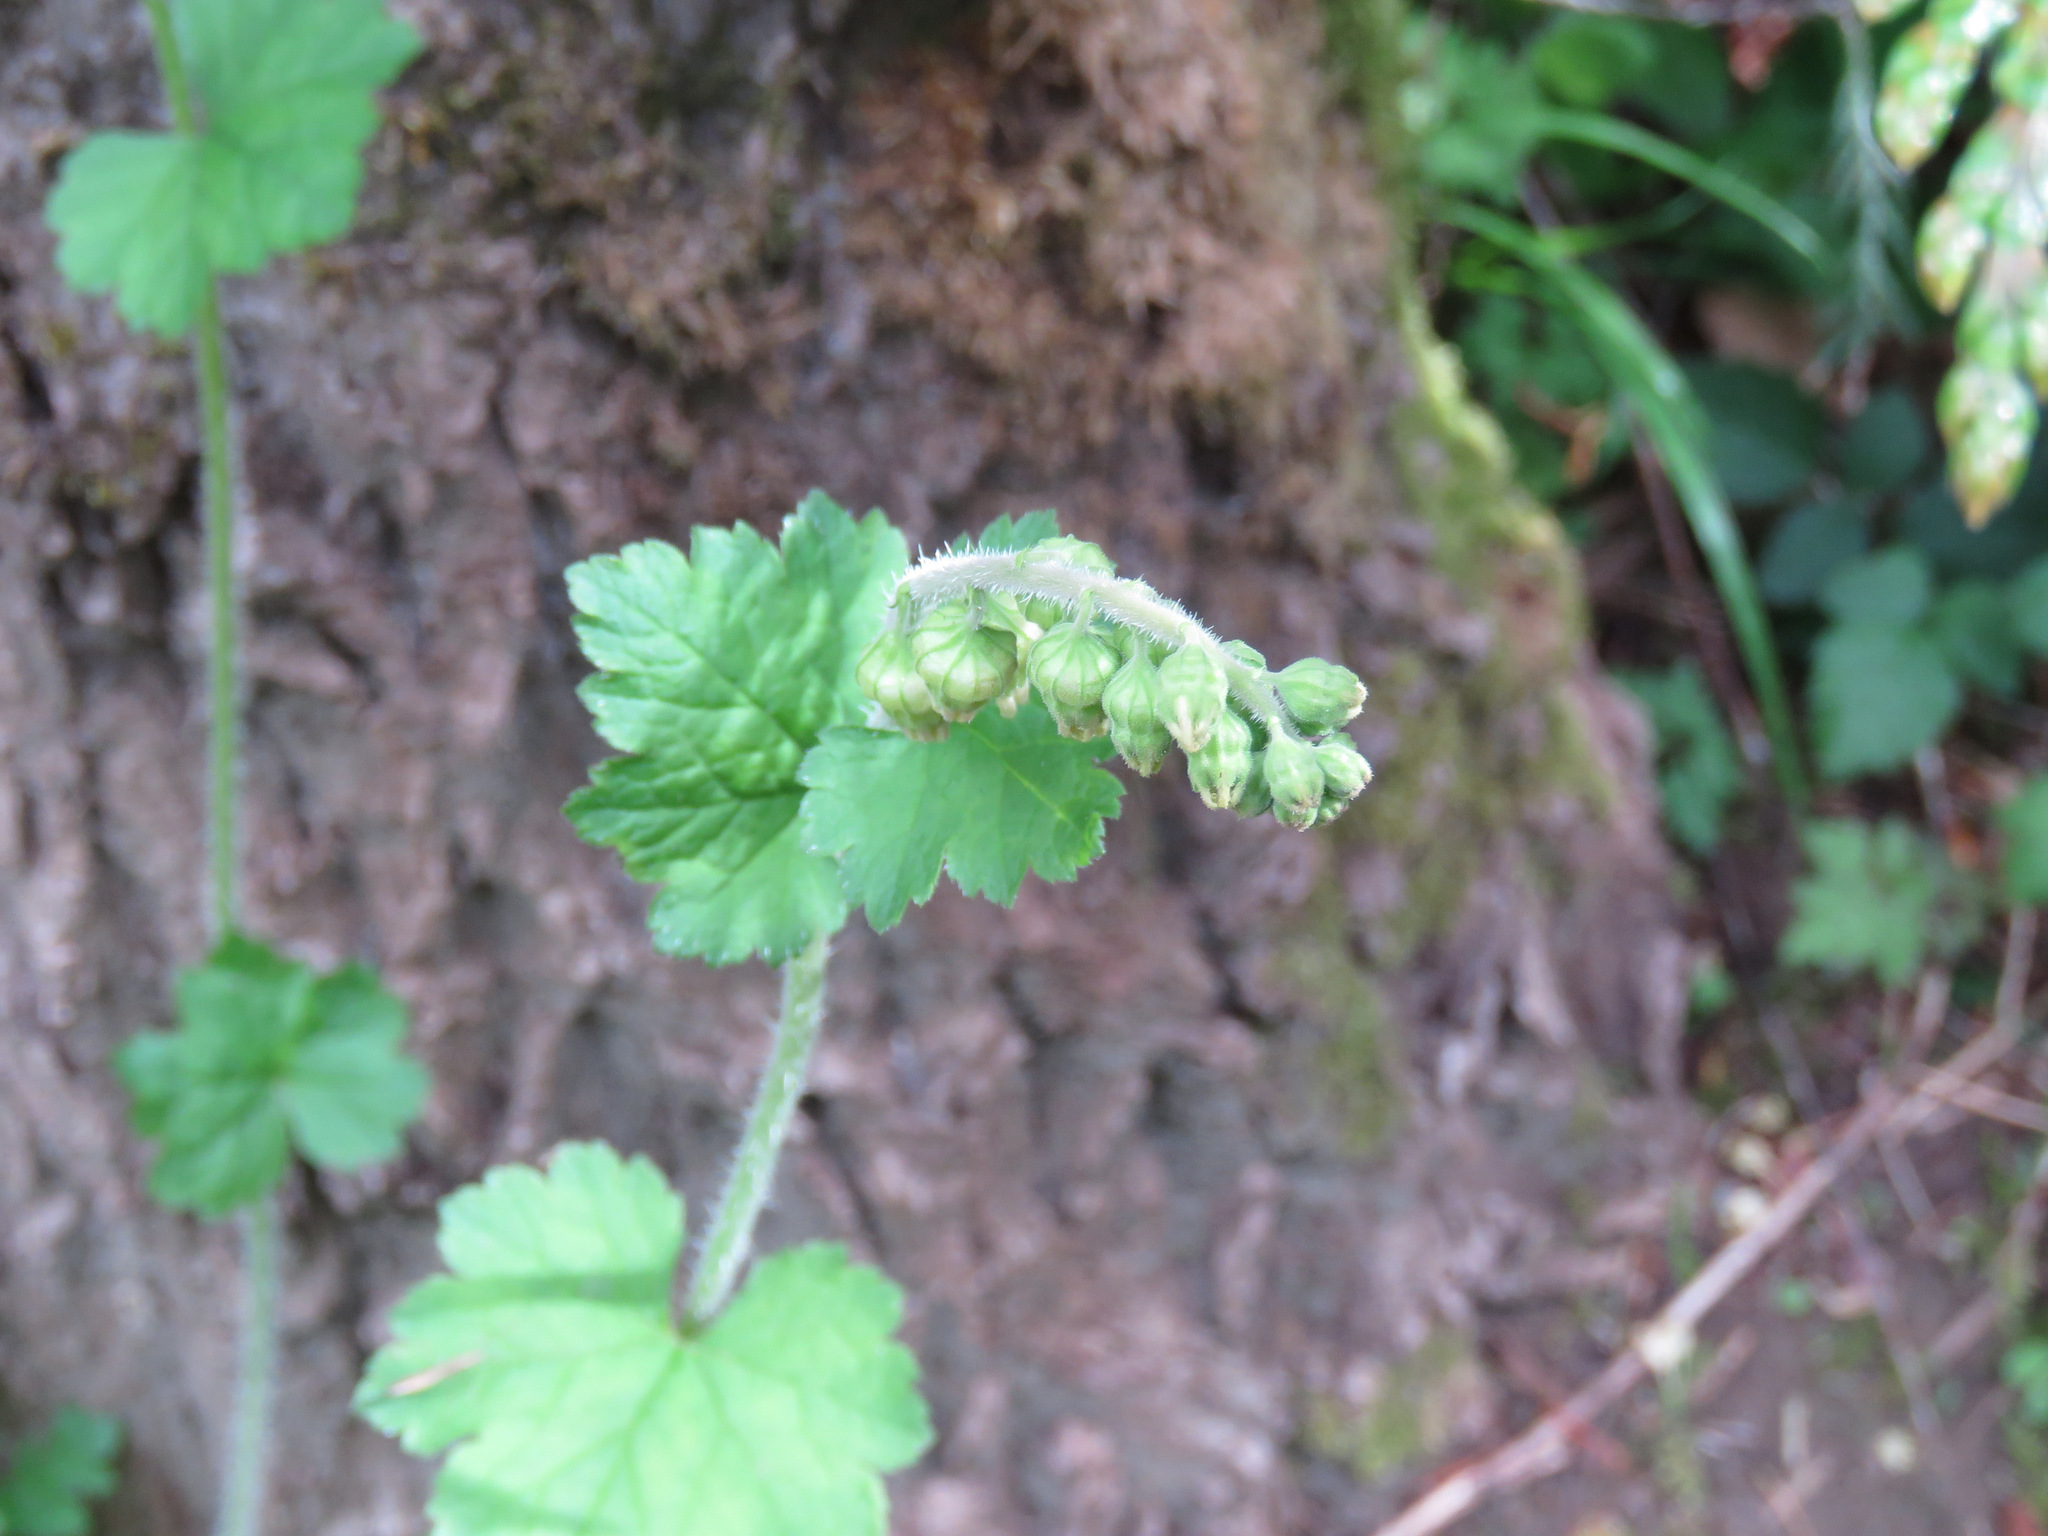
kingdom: Plantae
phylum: Tracheophyta
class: Magnoliopsida
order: Saxifragales
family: Saxifragaceae
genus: Tellima
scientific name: Tellima grandiflora
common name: Fringecups
